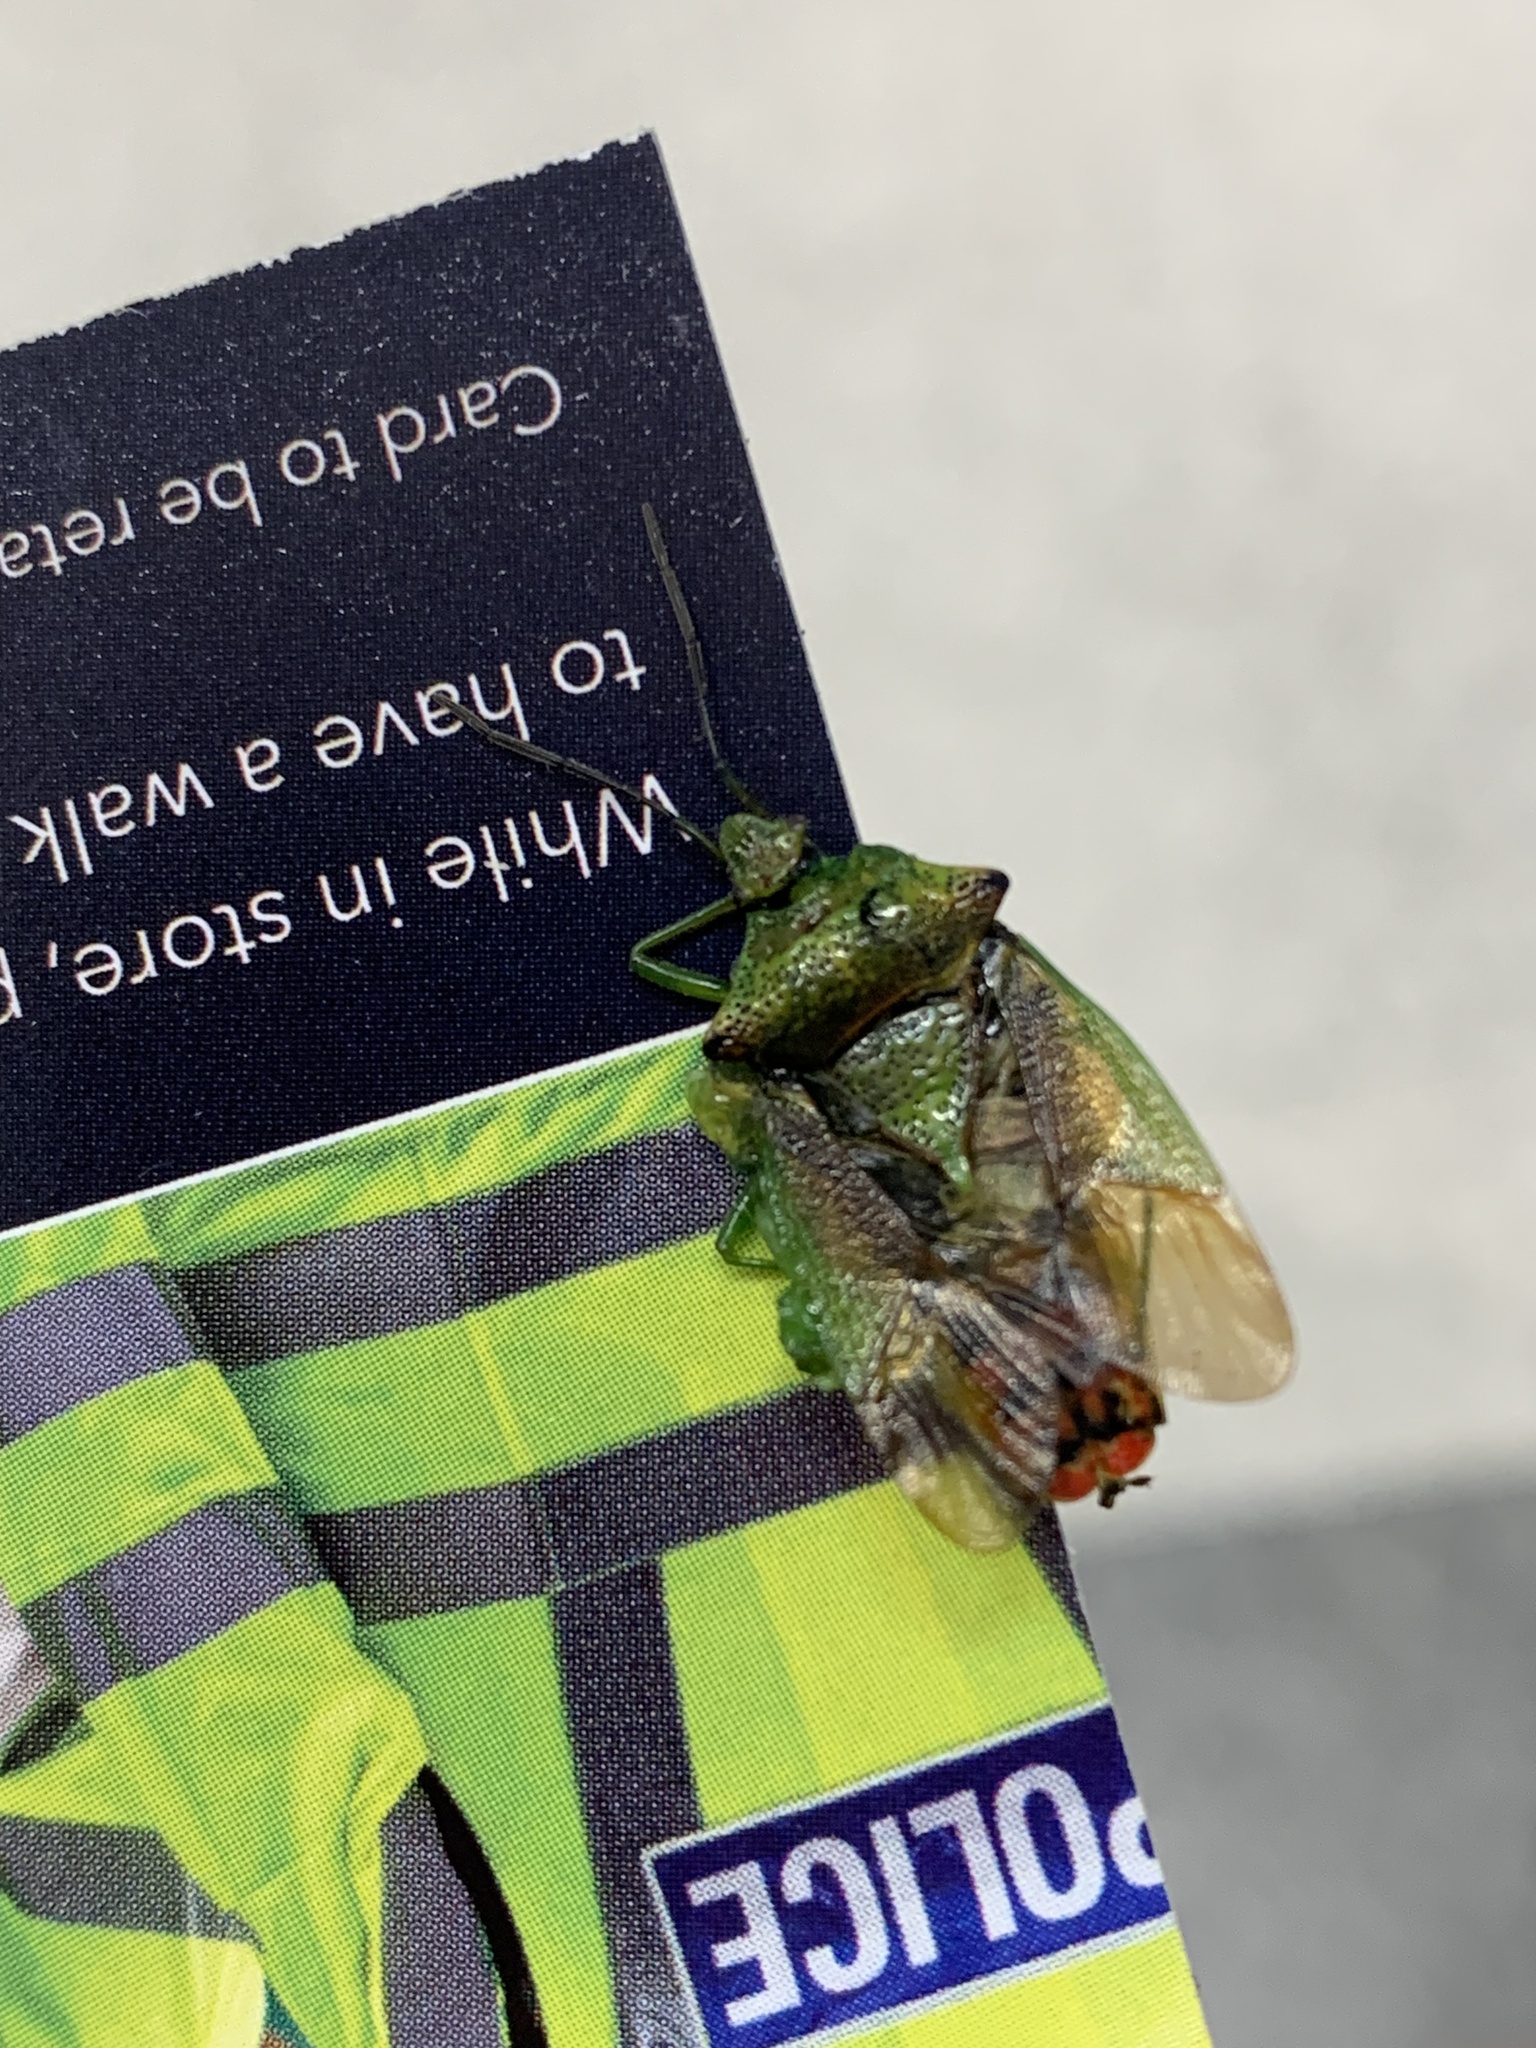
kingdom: Animalia
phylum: Arthropoda
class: Insecta
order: Hemiptera
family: Acanthosomatidae
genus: Acanthosoma
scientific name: Acanthosoma haemorrhoidale
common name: Hawthorn shieldbug
